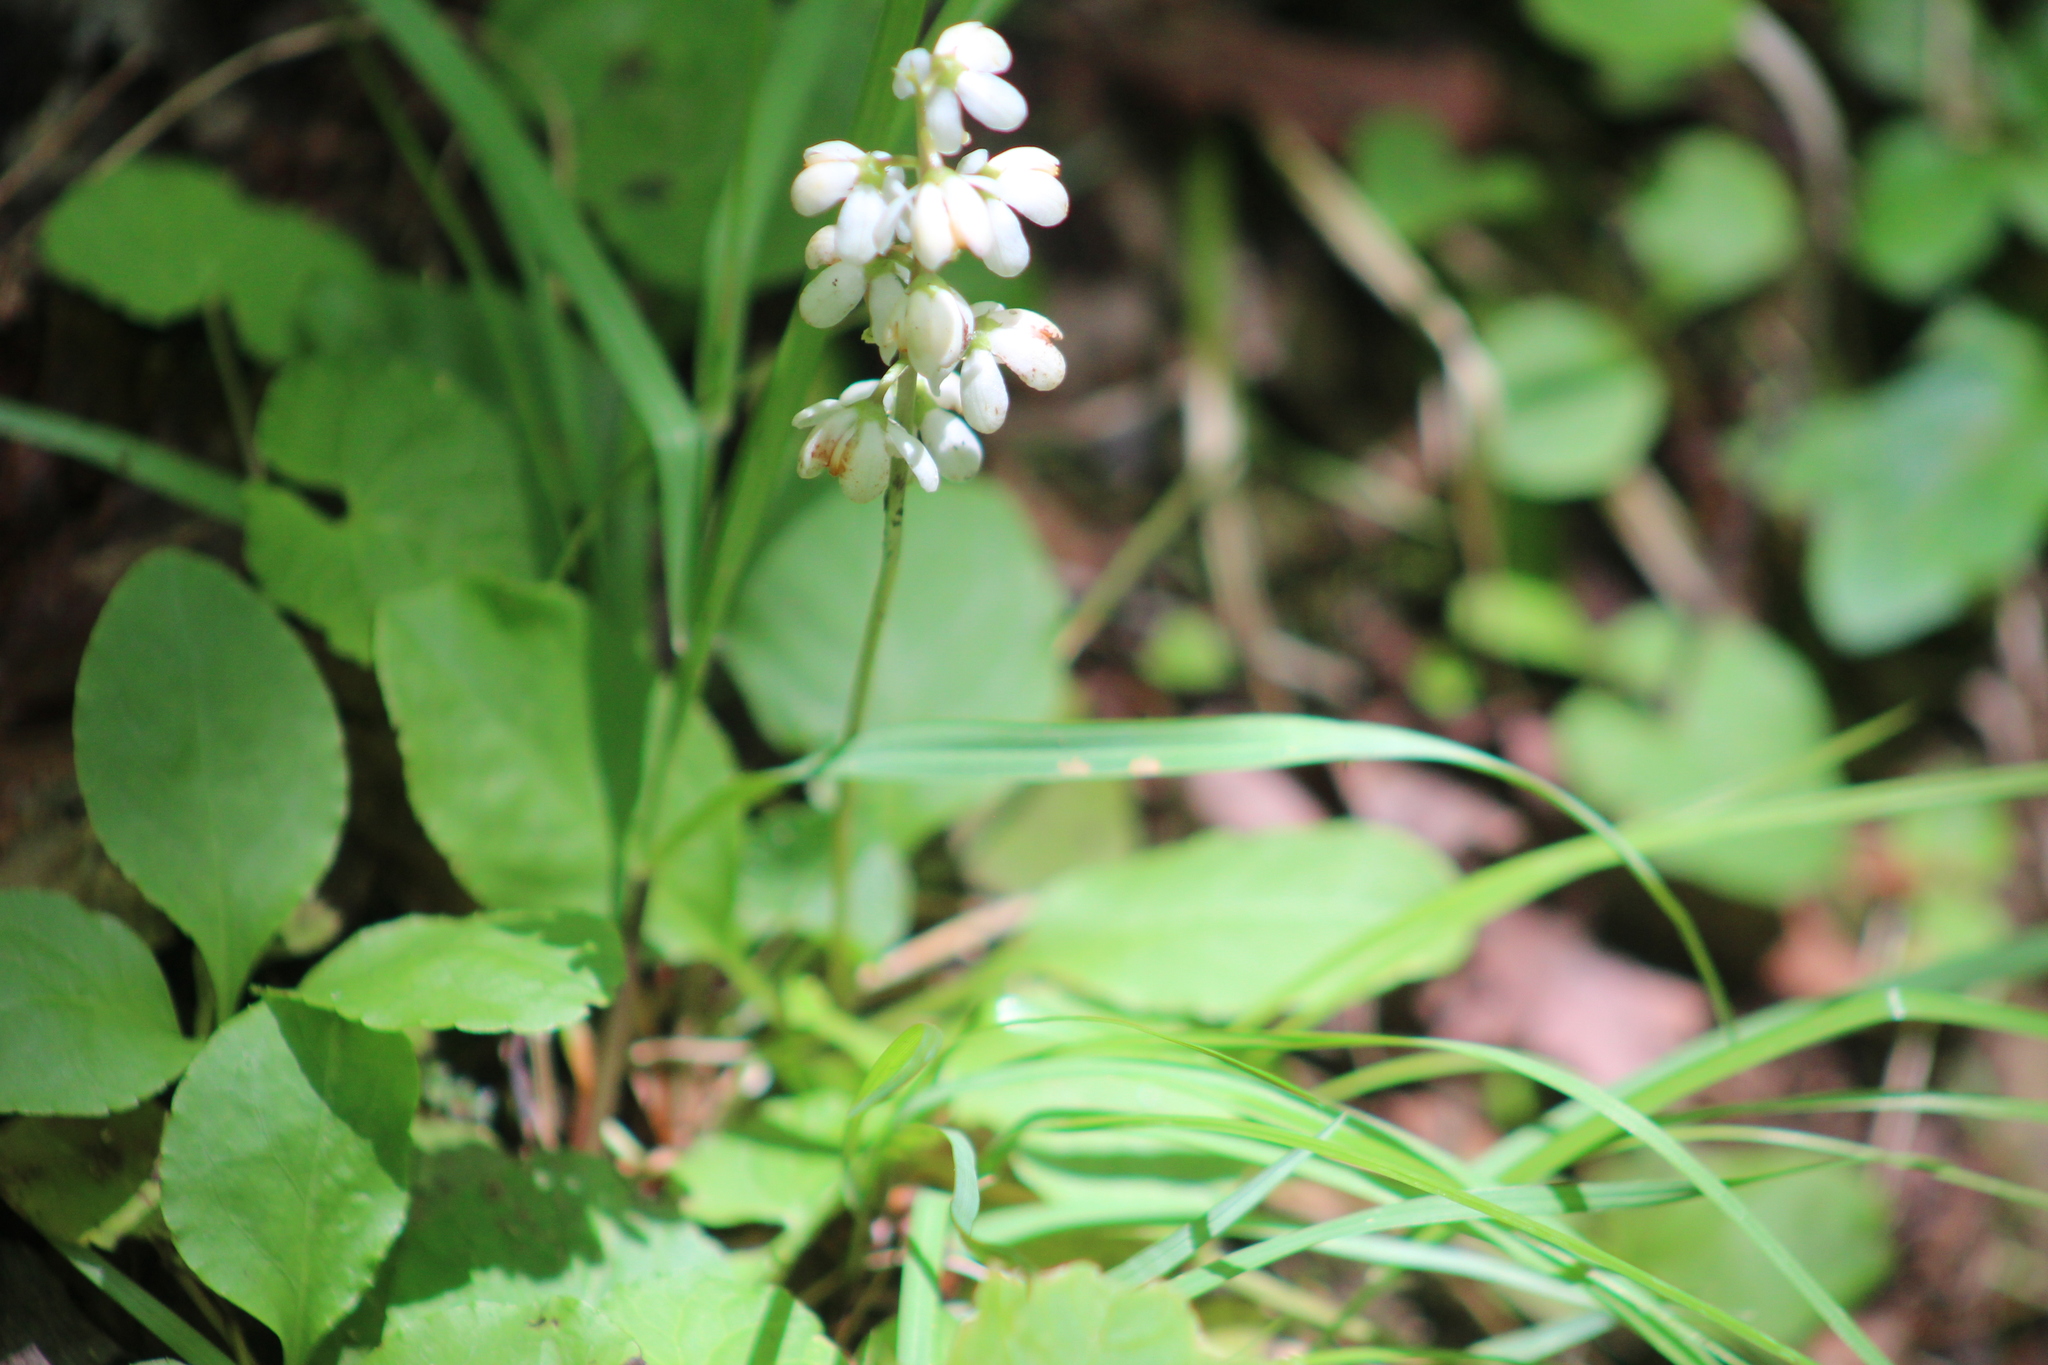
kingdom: Plantae
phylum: Tracheophyta
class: Magnoliopsida
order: Ericales
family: Ericaceae
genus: Pyrola
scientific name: Pyrola elliptica
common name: Shinleaf
